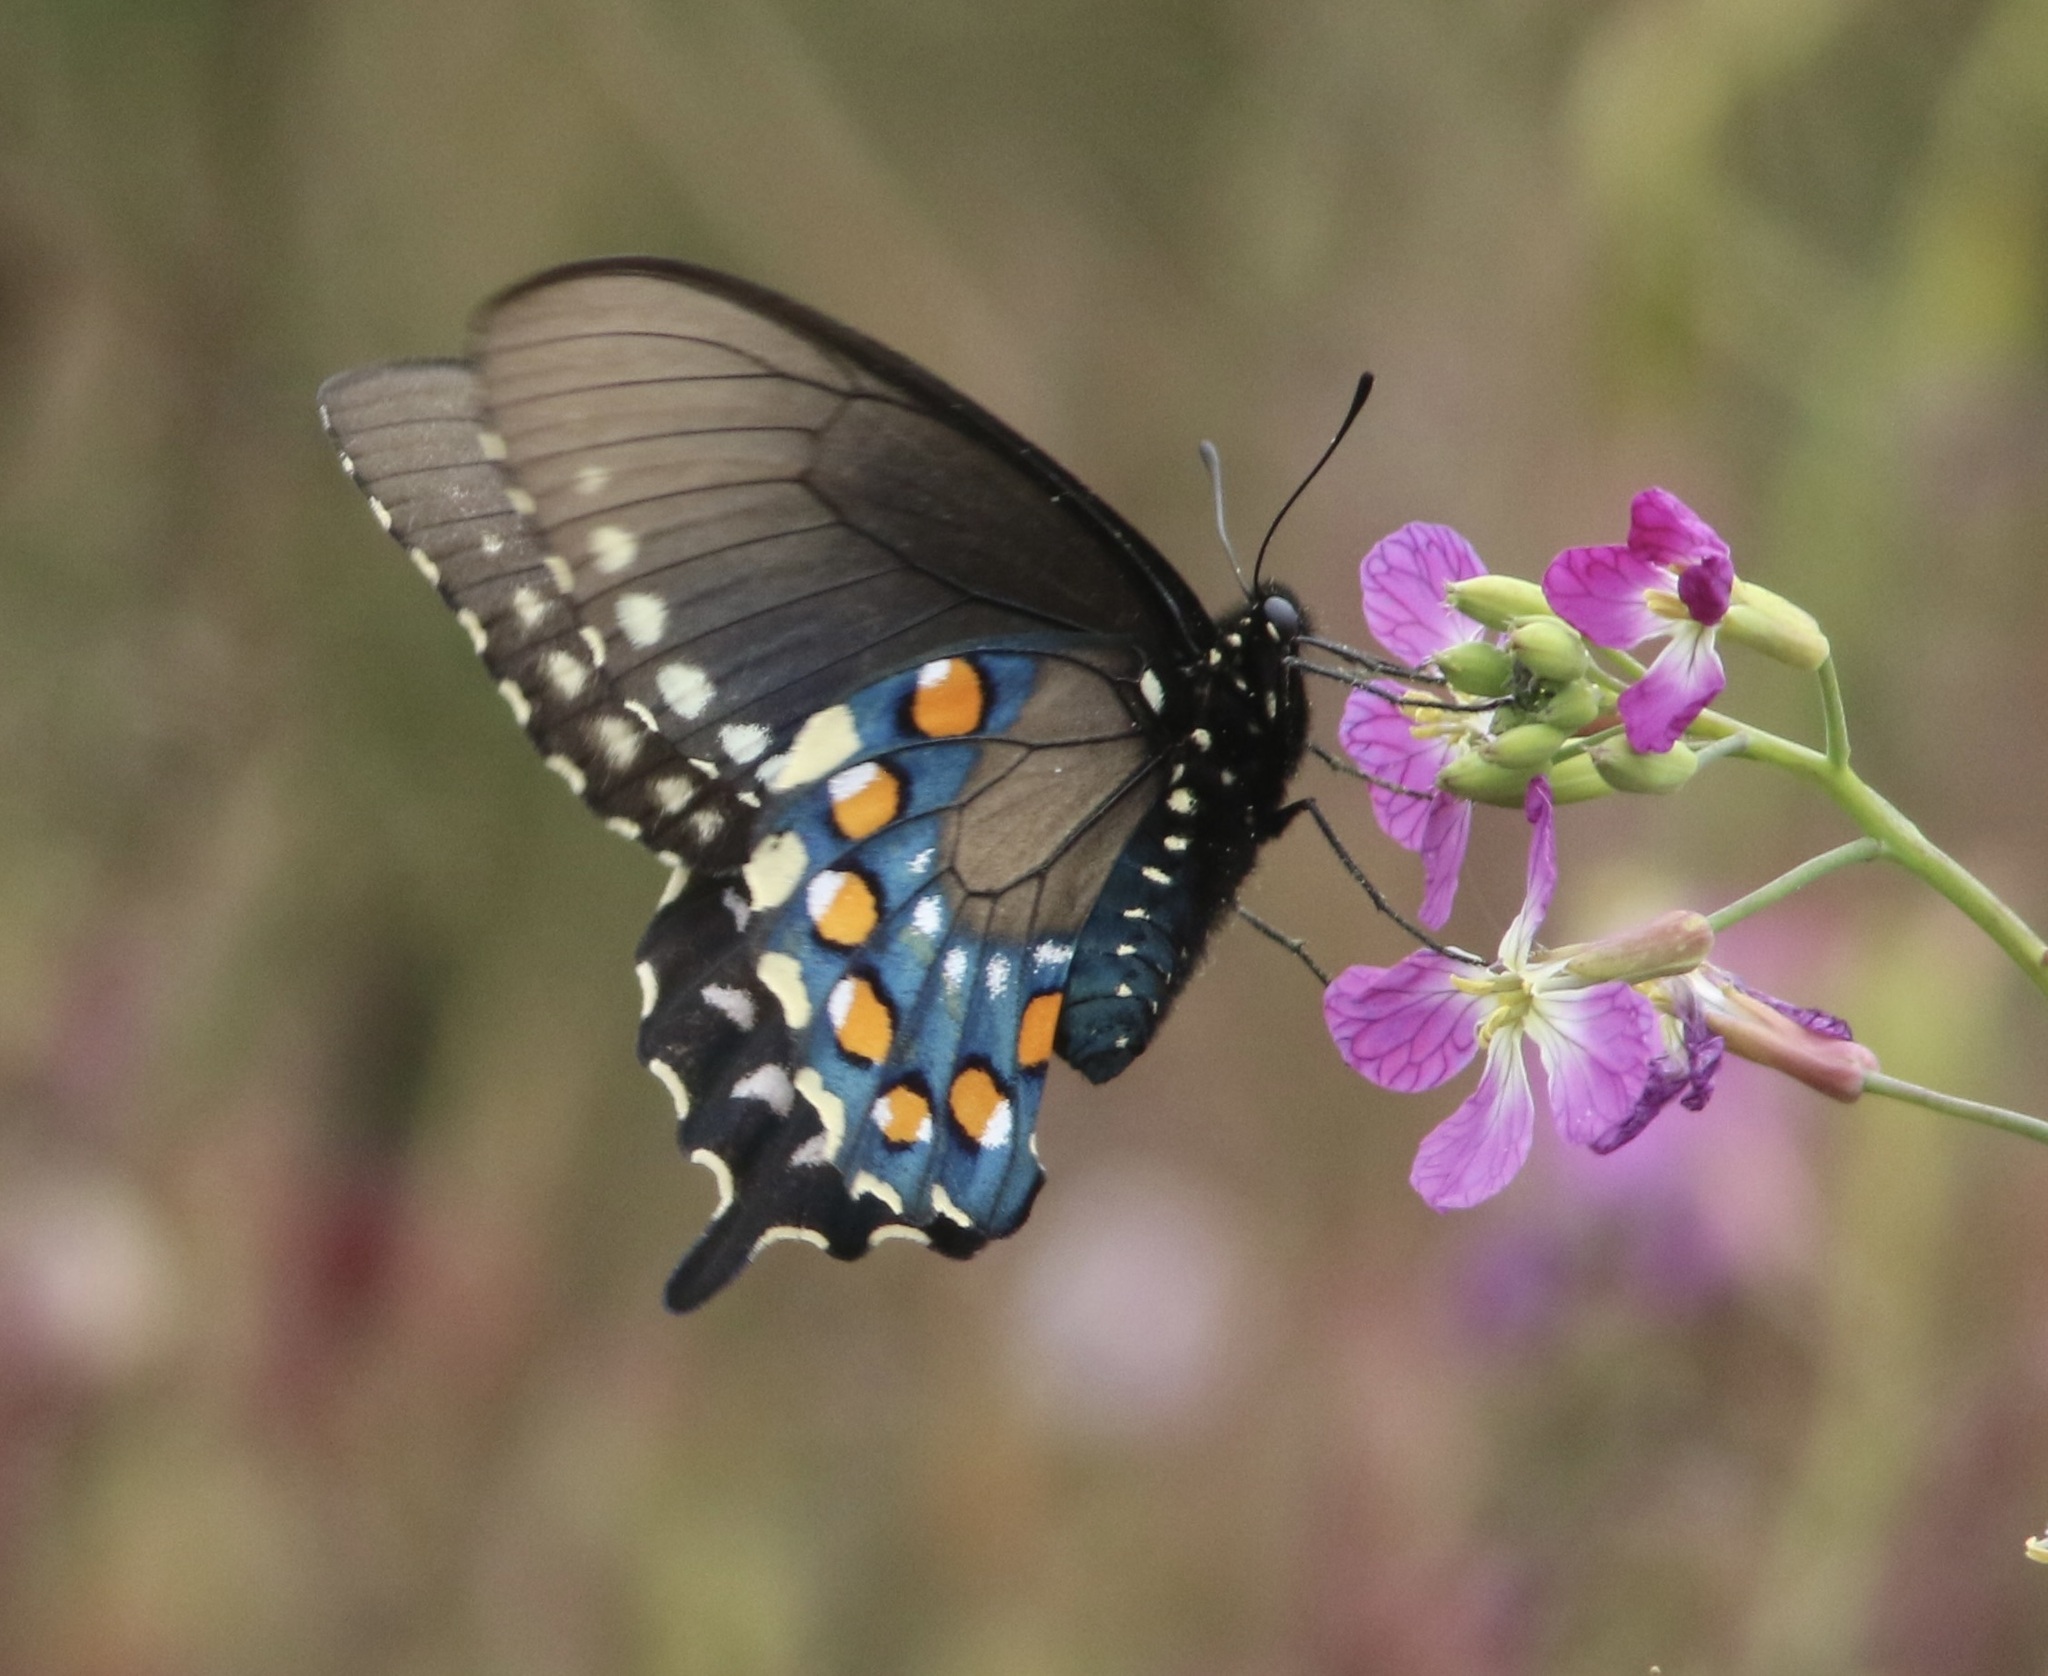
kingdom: Animalia
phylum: Arthropoda
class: Insecta
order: Lepidoptera
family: Papilionidae
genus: Battus
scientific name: Battus philenor
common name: Pipevine swallowtail
